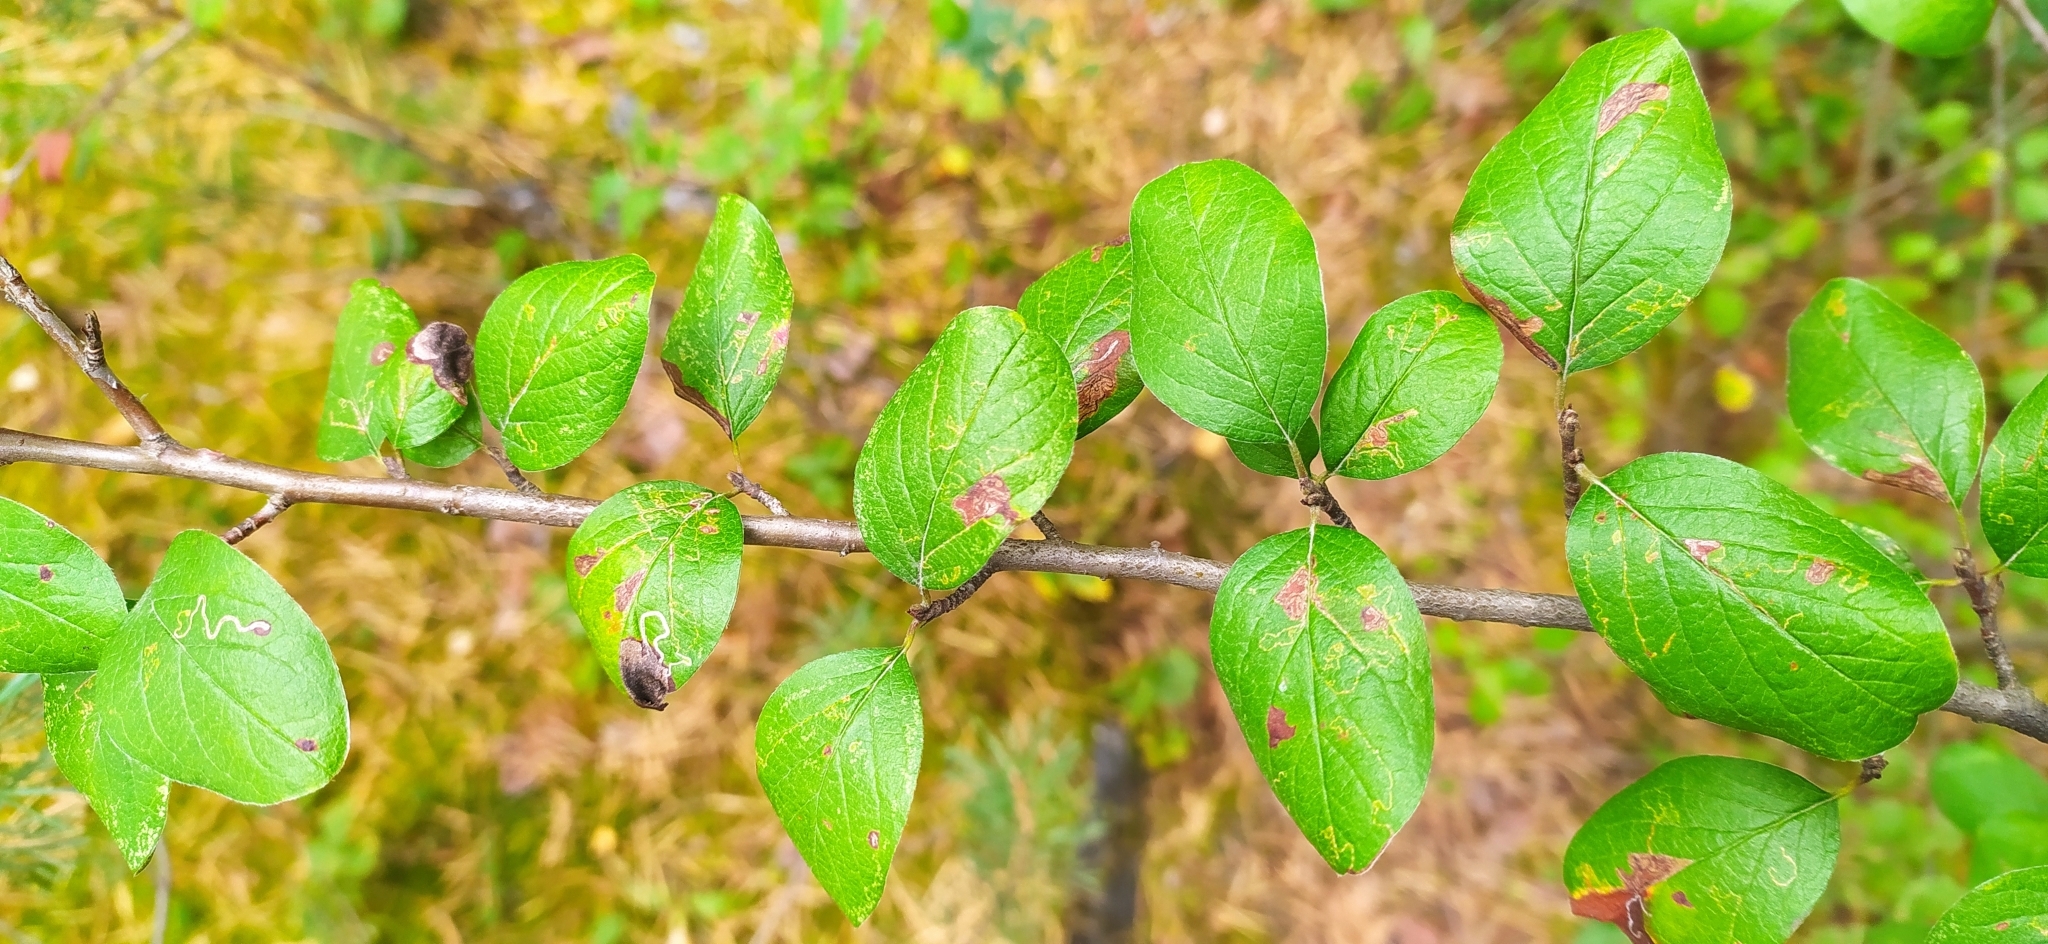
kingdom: Plantae
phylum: Tracheophyta
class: Magnoliopsida
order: Rosales
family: Rosaceae
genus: Cotoneaster
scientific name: Cotoneaster melanocarpus
